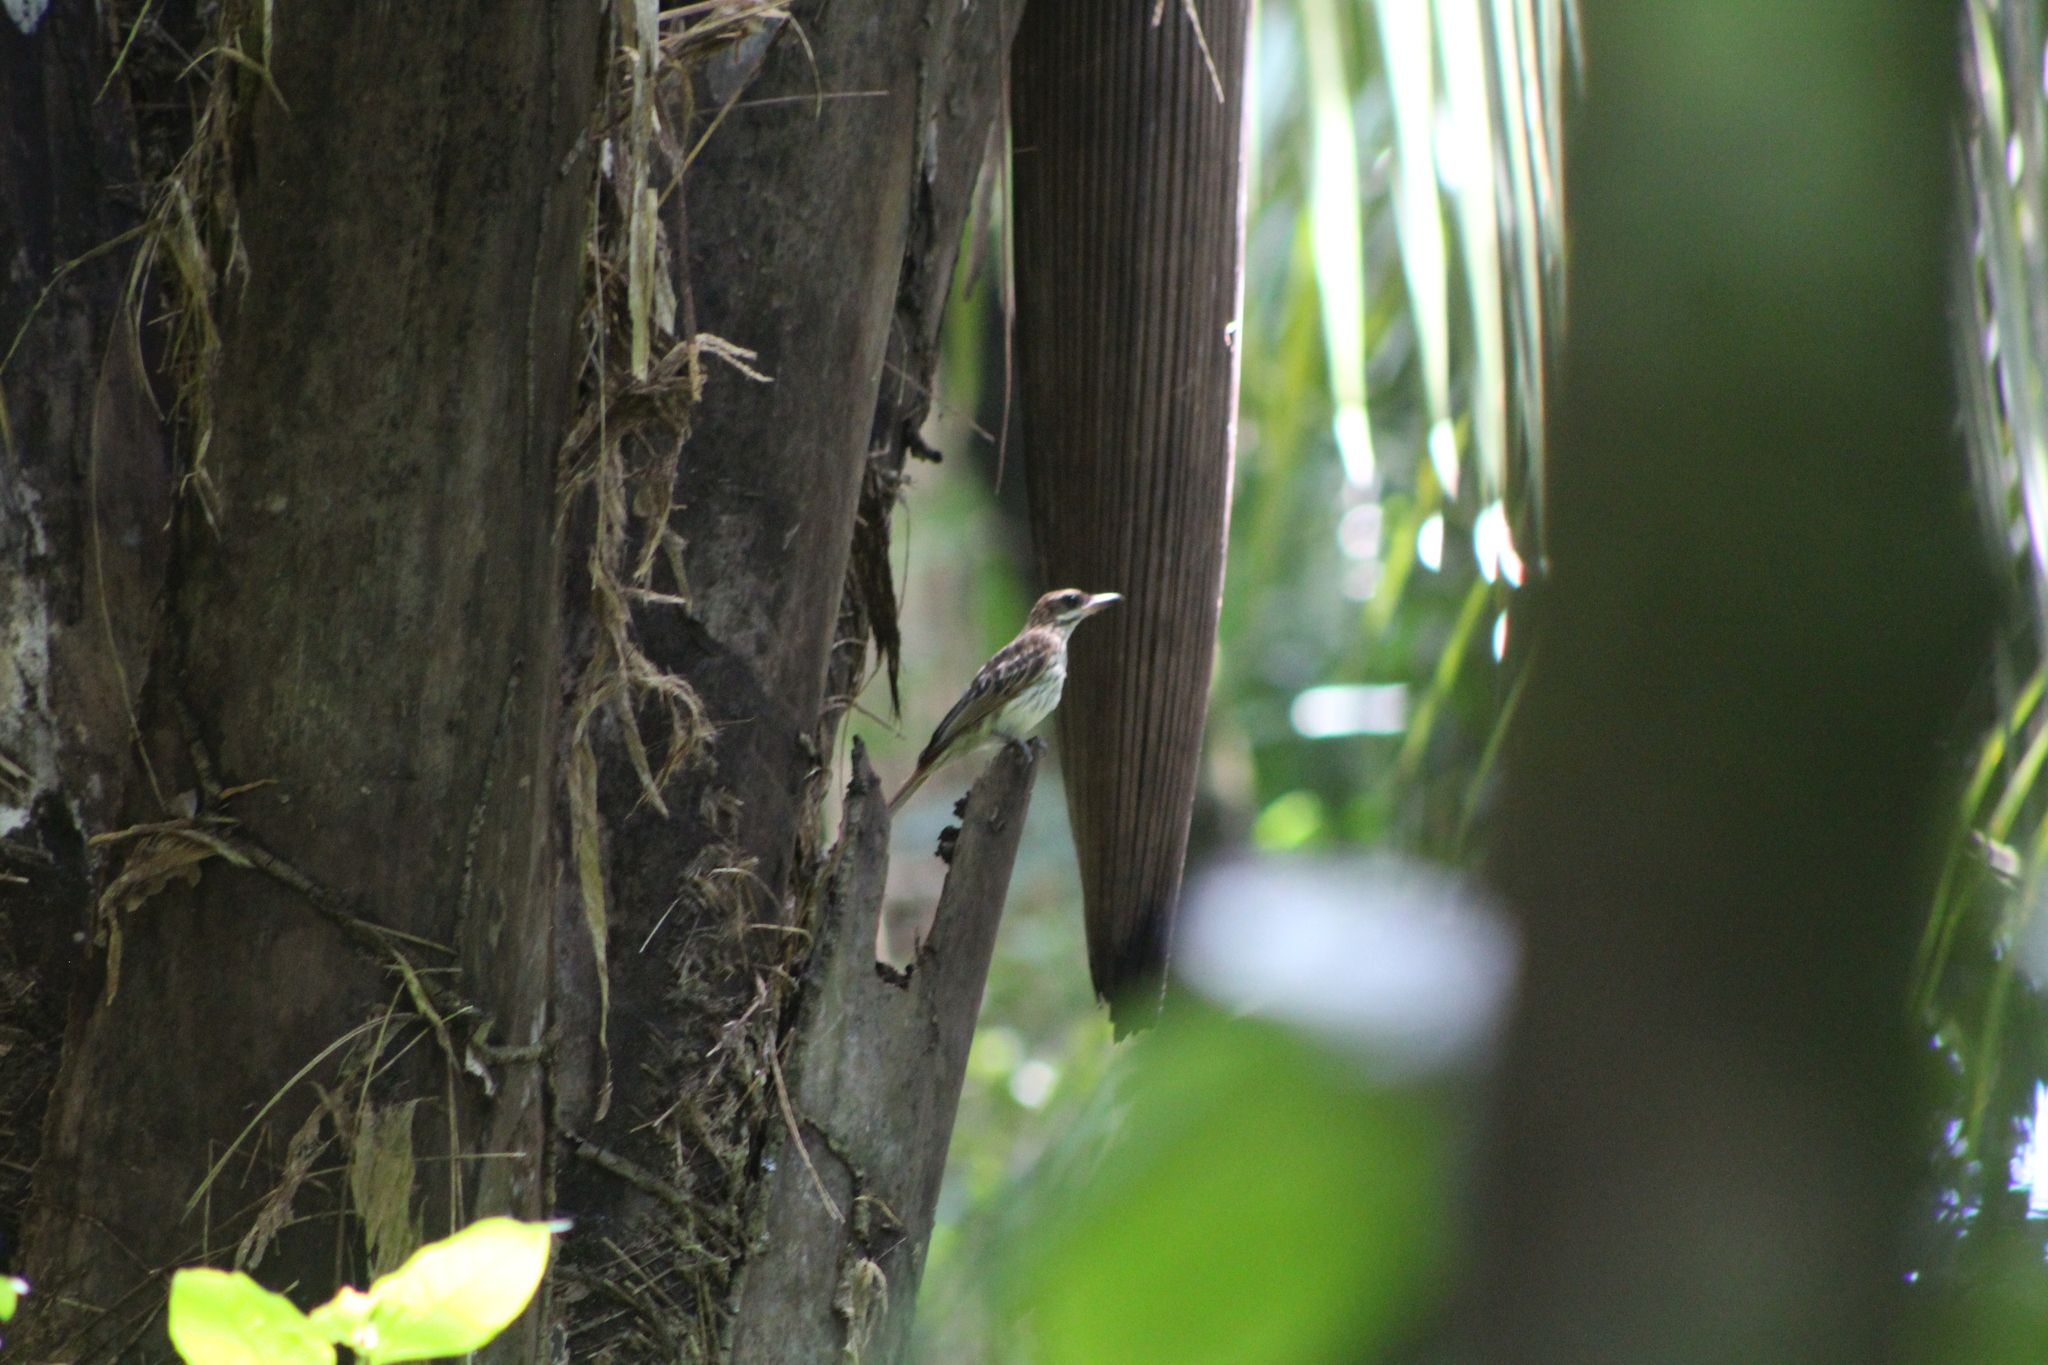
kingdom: Animalia
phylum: Chordata
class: Aves
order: Passeriformes
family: Tyrannidae
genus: Myiodynastes
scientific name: Myiodynastes maculatus
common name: Streaked flycatcher
